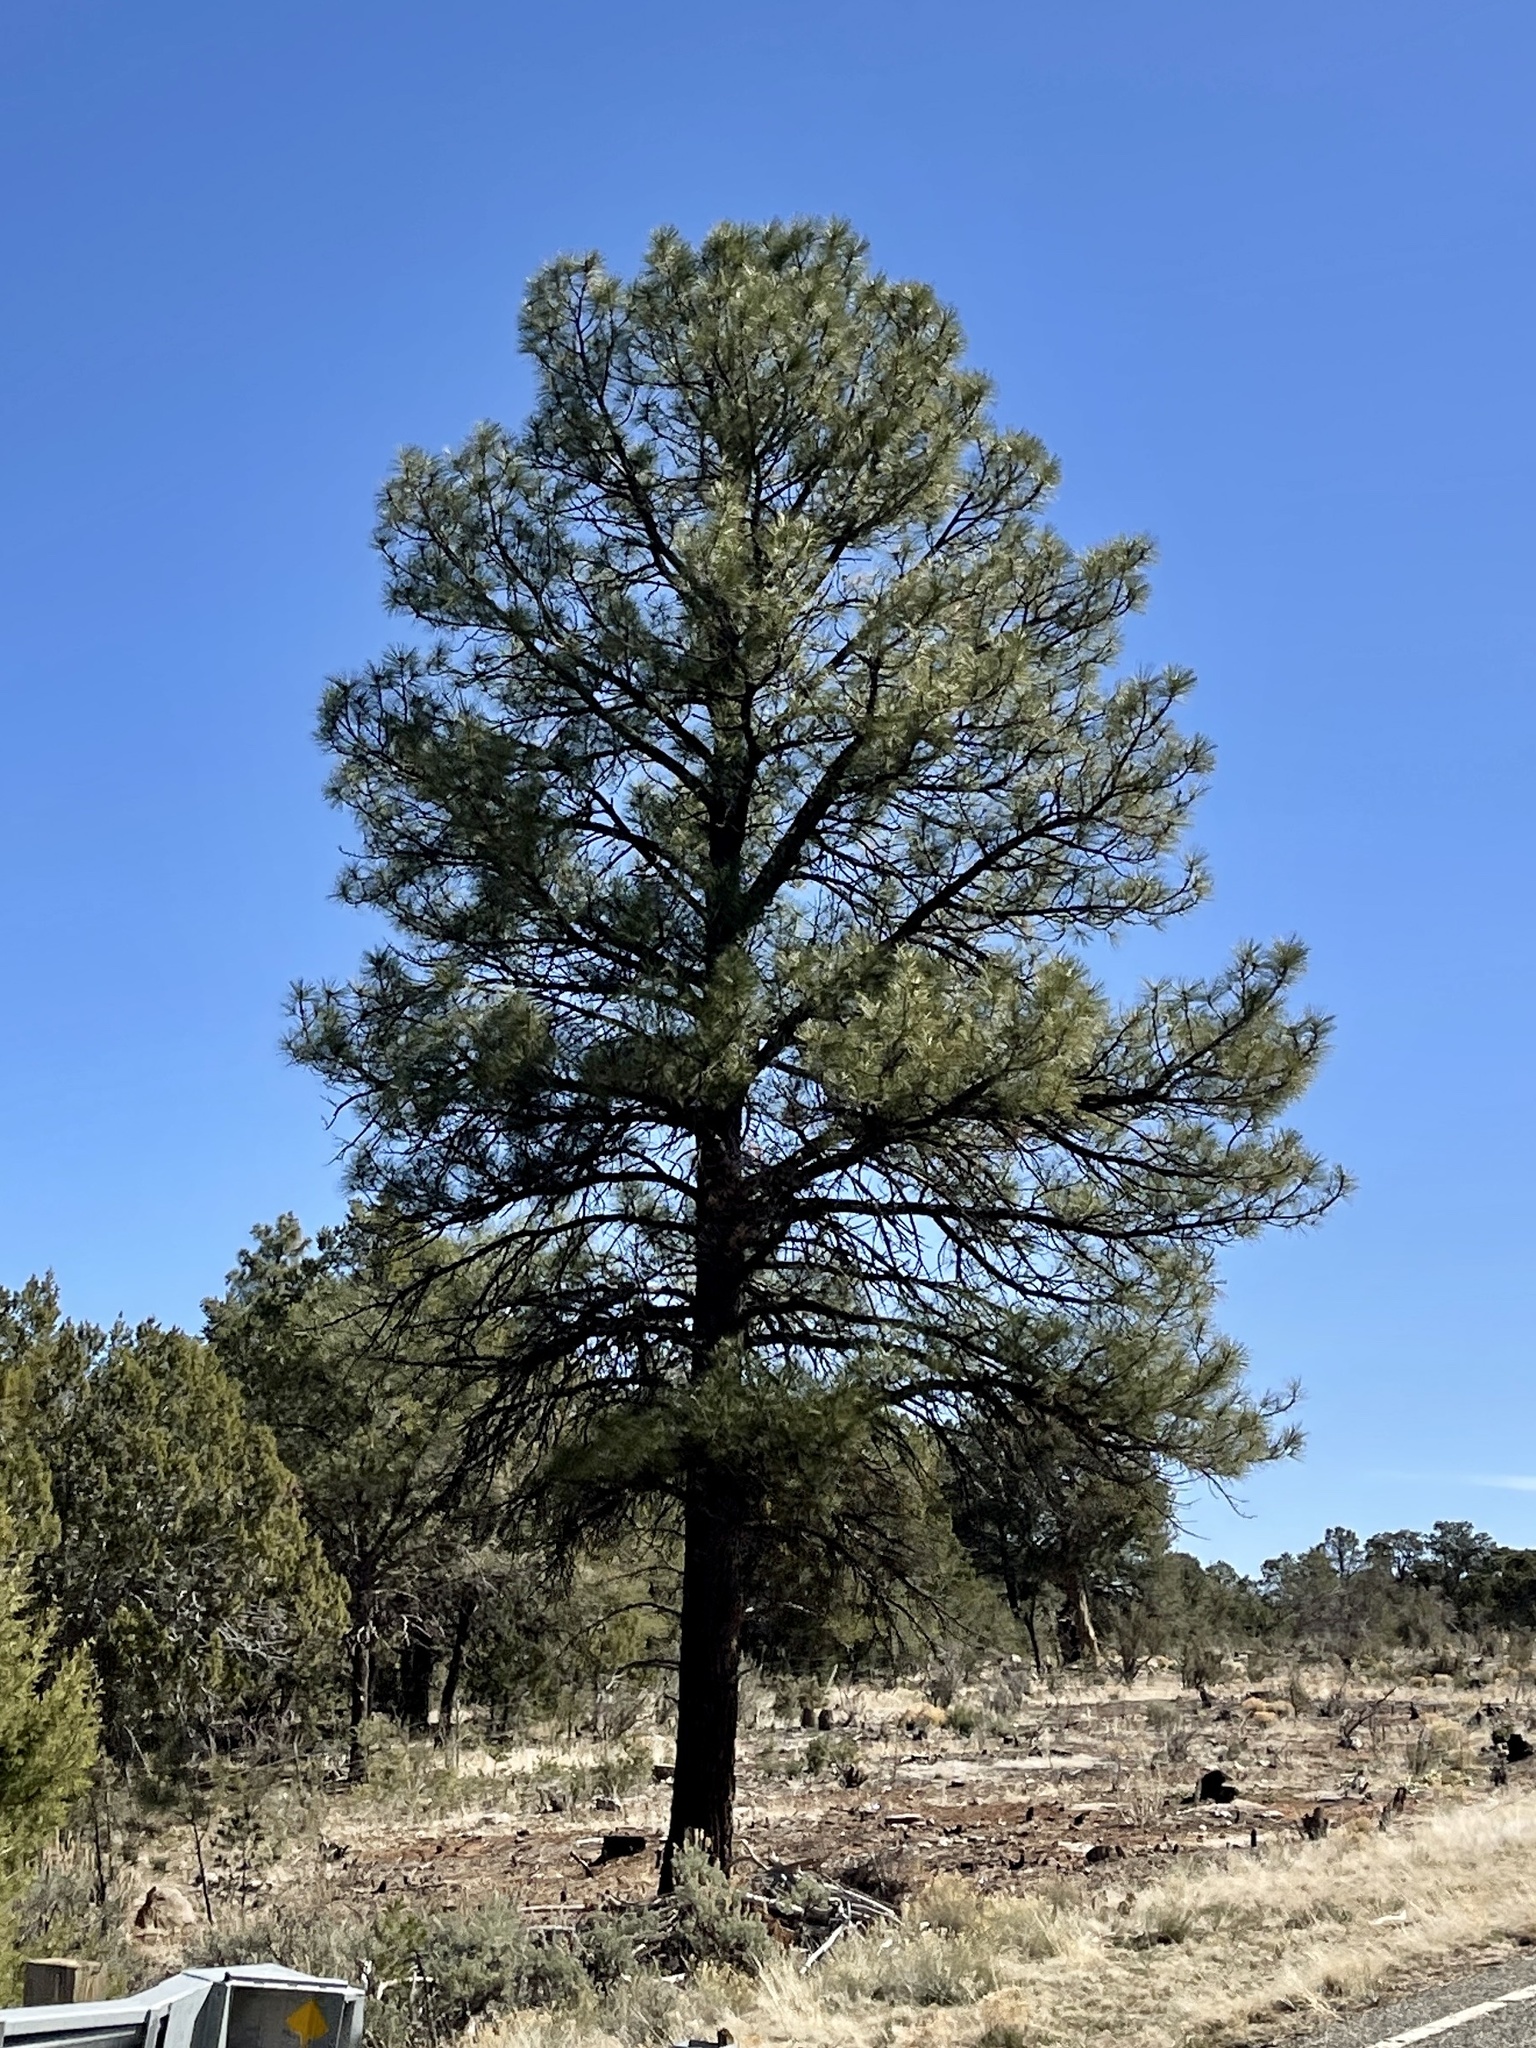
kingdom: Plantae
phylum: Tracheophyta
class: Pinopsida
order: Pinales
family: Pinaceae
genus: Pinus
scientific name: Pinus ponderosa
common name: Western yellow-pine
